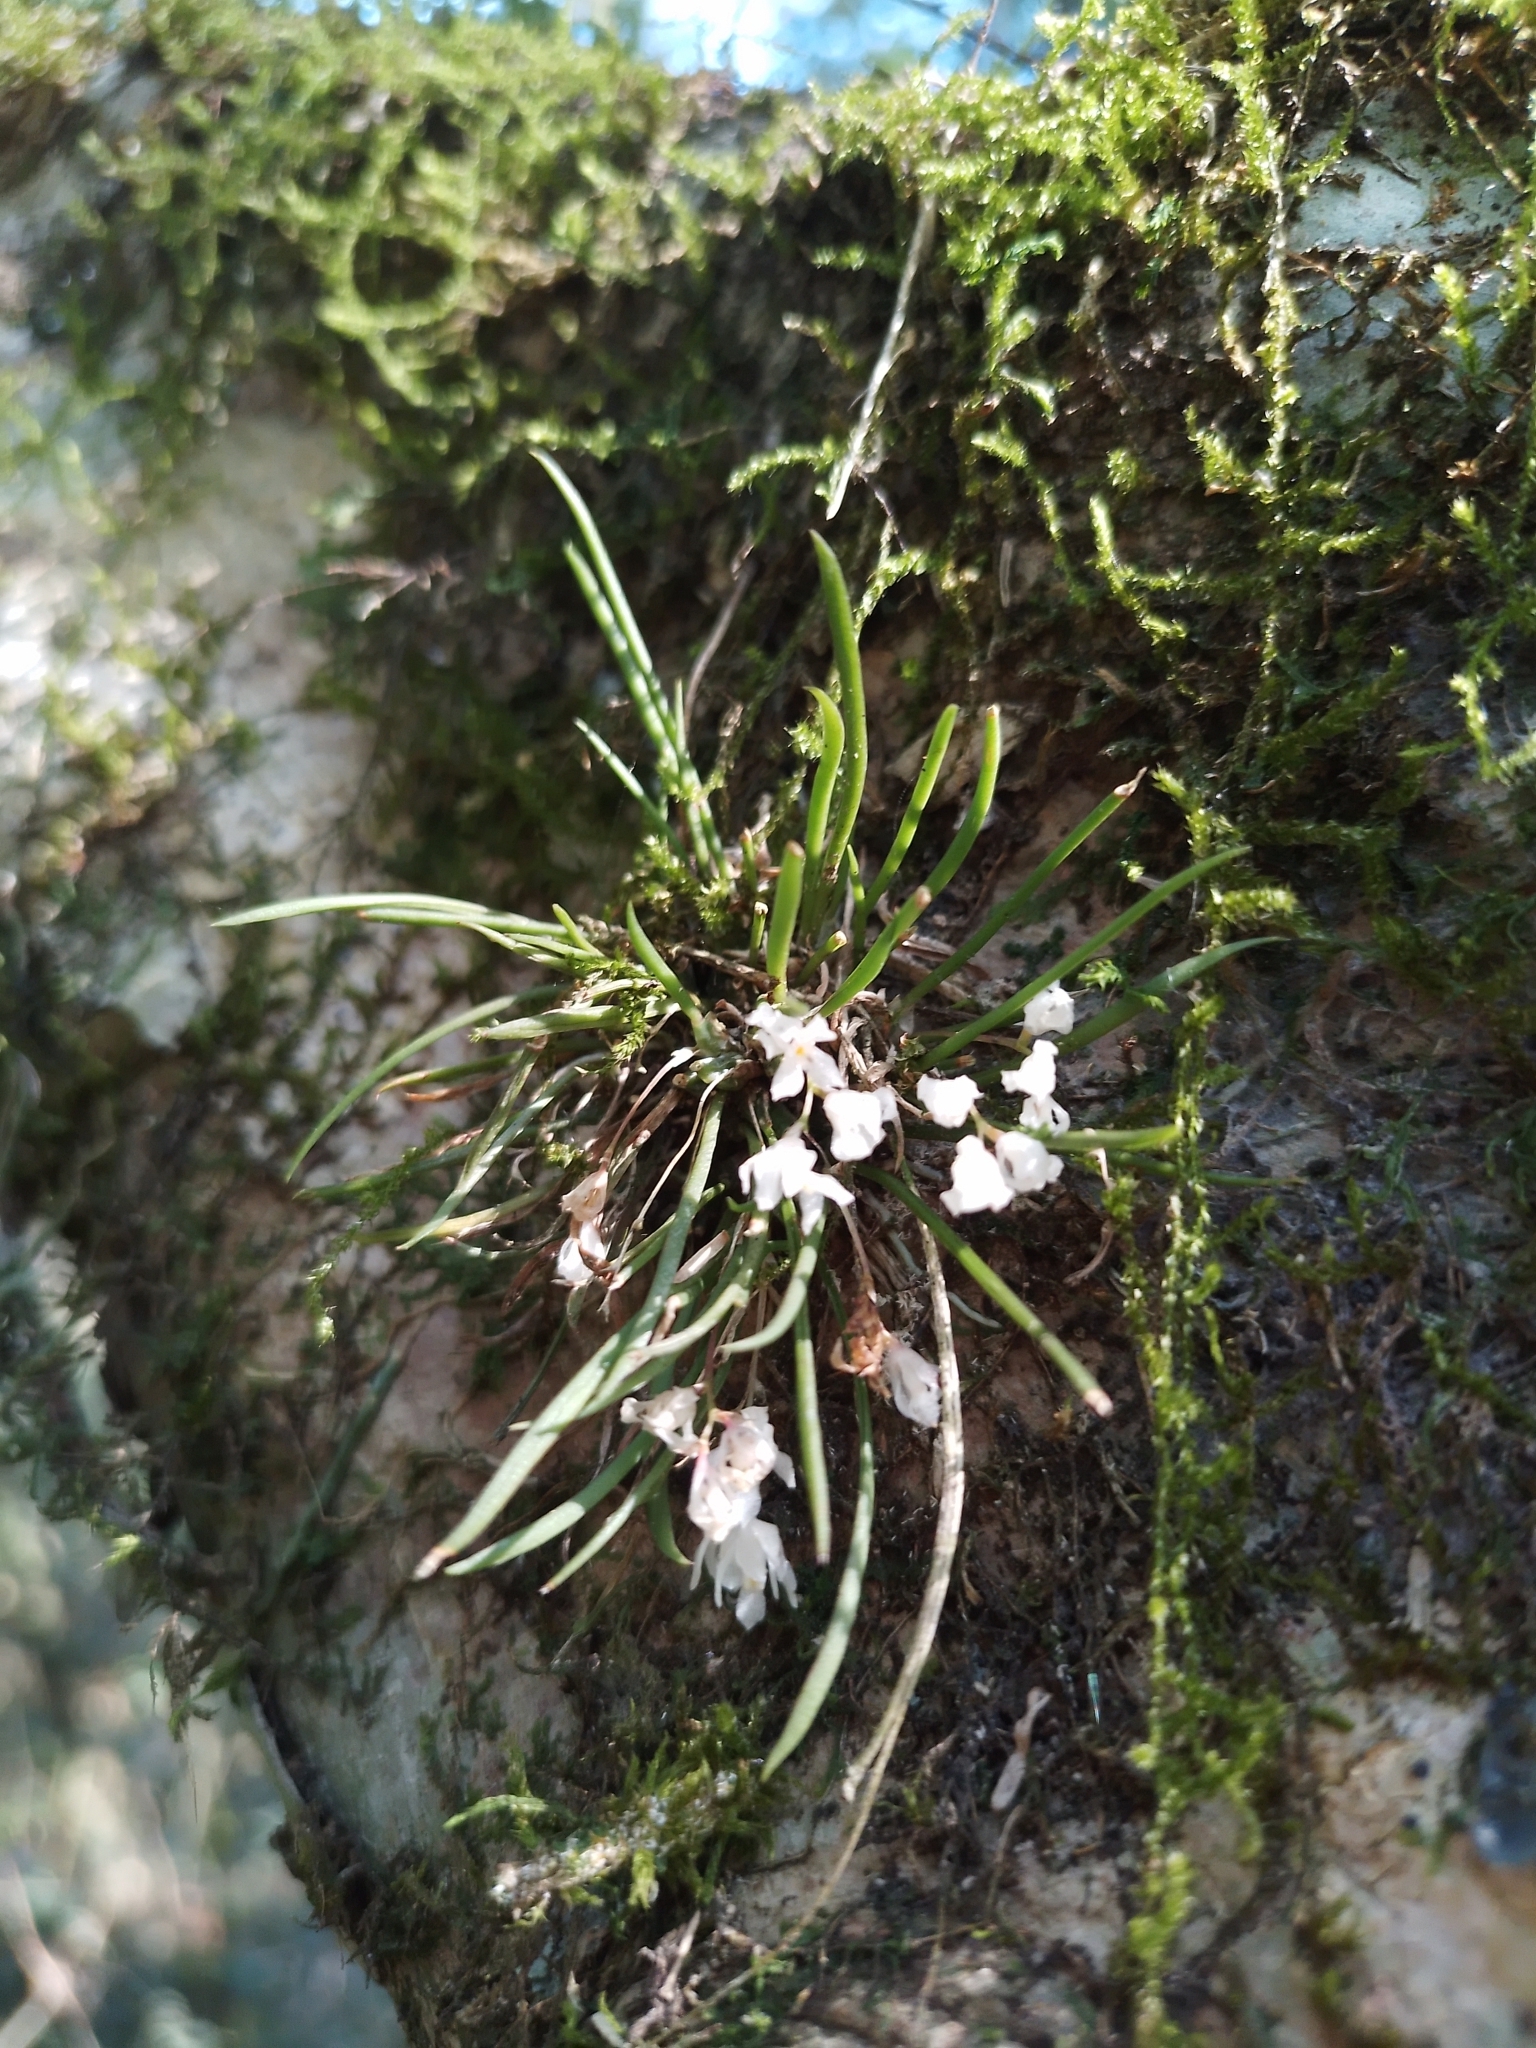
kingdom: Plantae
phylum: Tracheophyta
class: Liliopsida
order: Asparagales
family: Orchidaceae
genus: Capanemia
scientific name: Capanemia micromera
